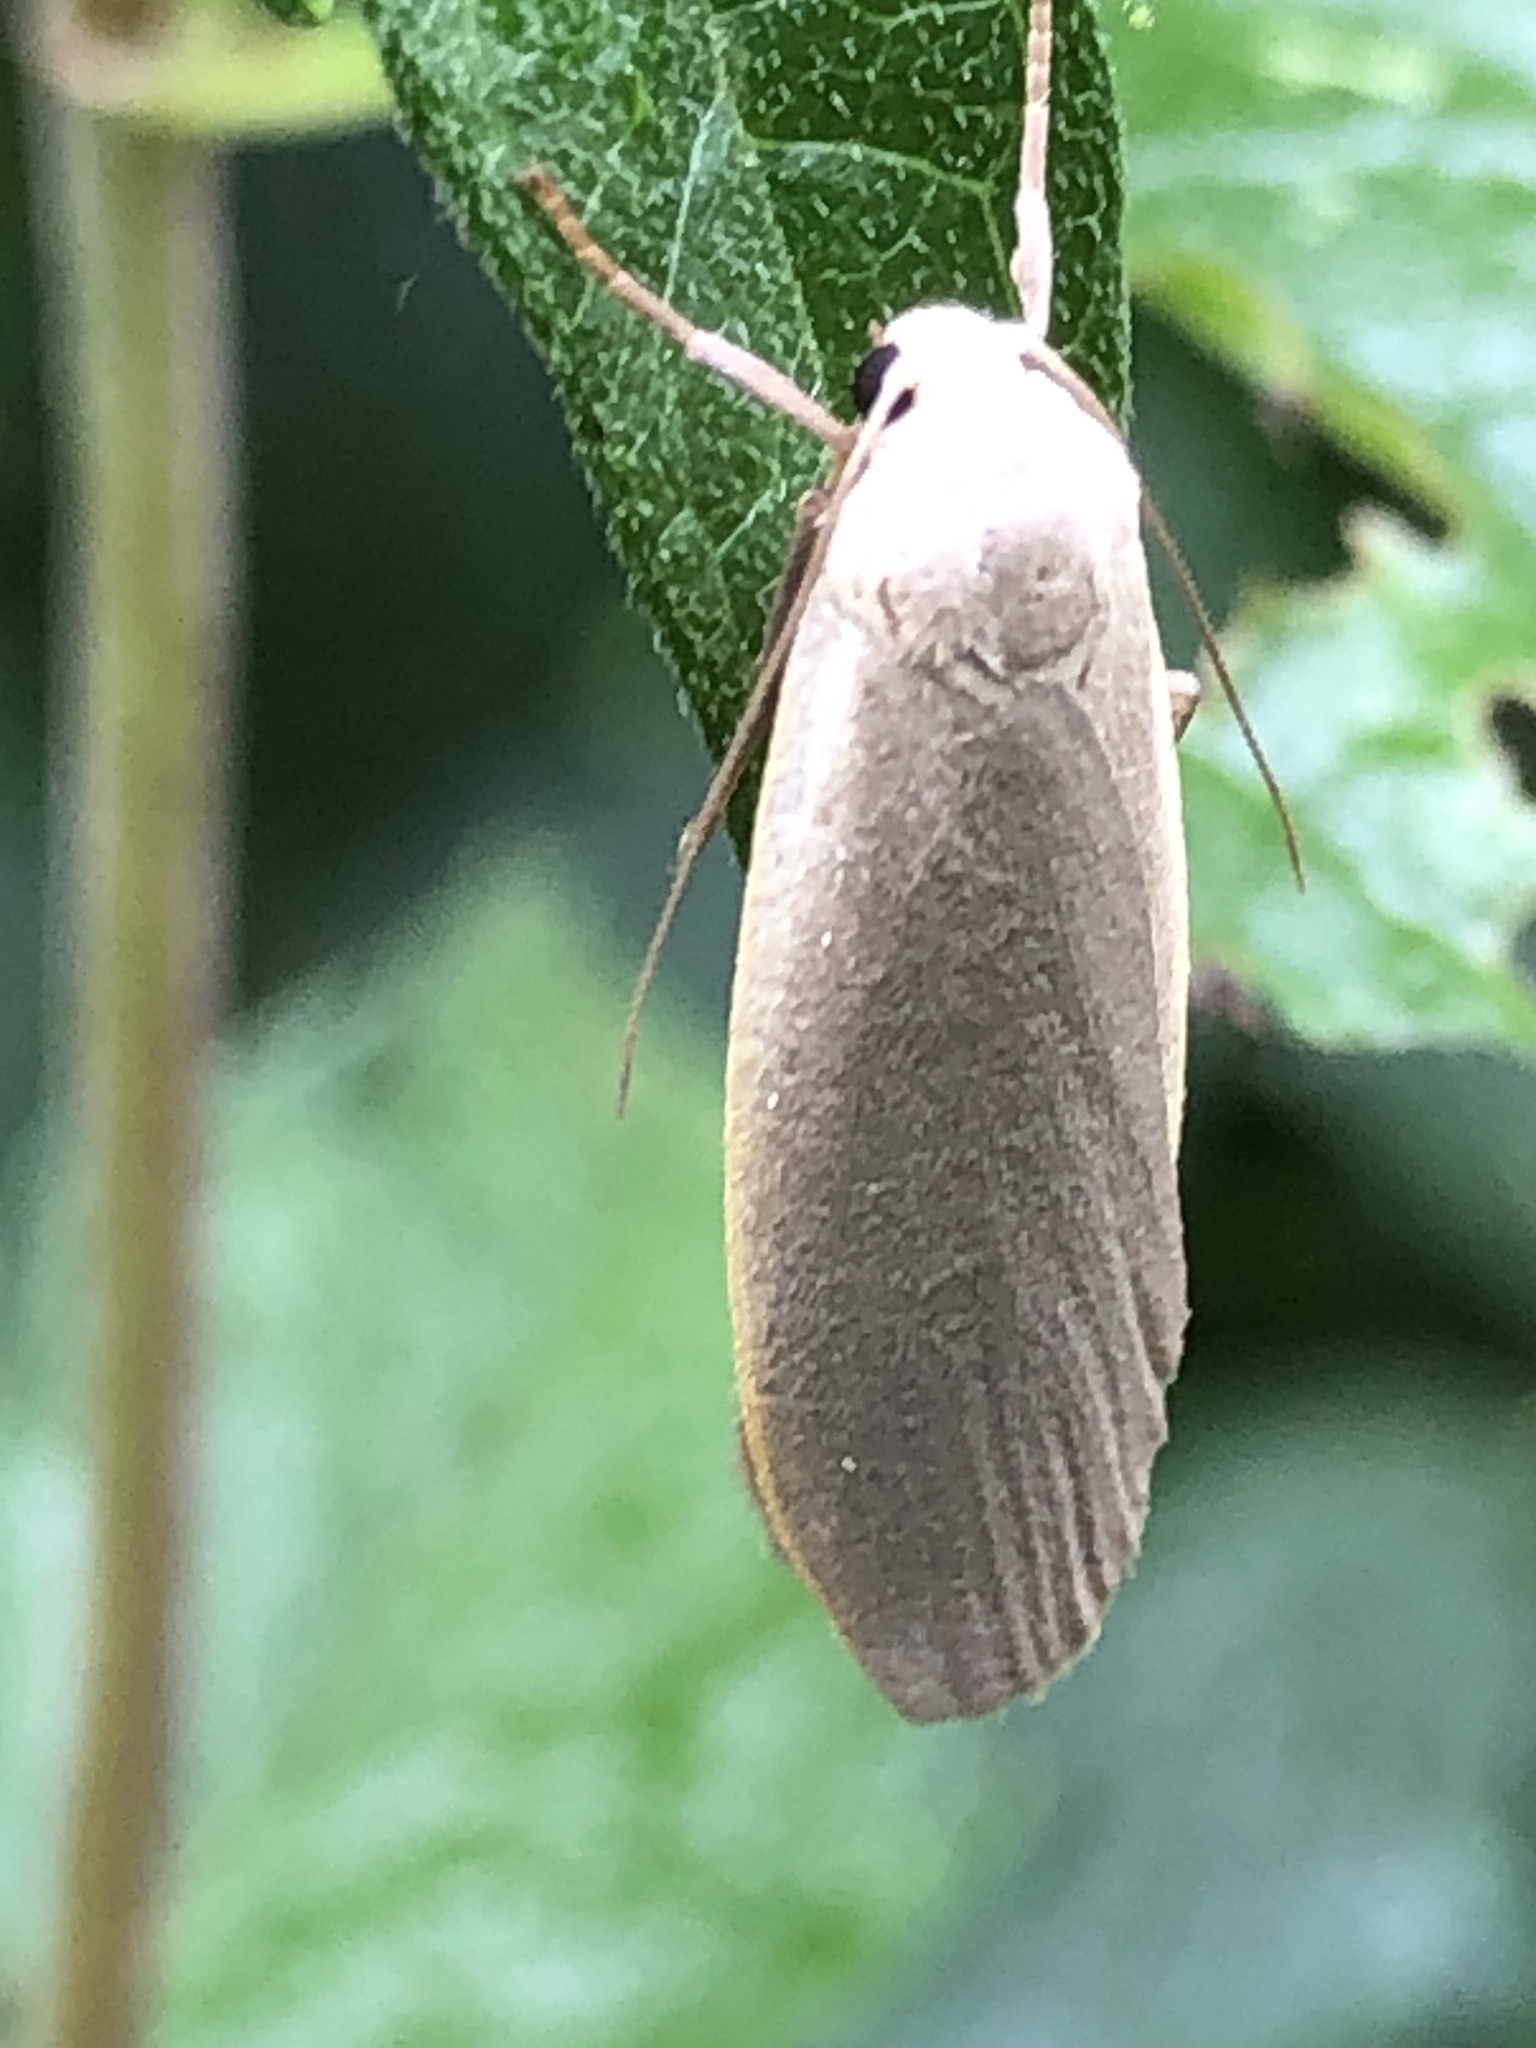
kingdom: Animalia
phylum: Arthropoda
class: Insecta
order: Lepidoptera
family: Erebidae
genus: Collita
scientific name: Collita griseola
